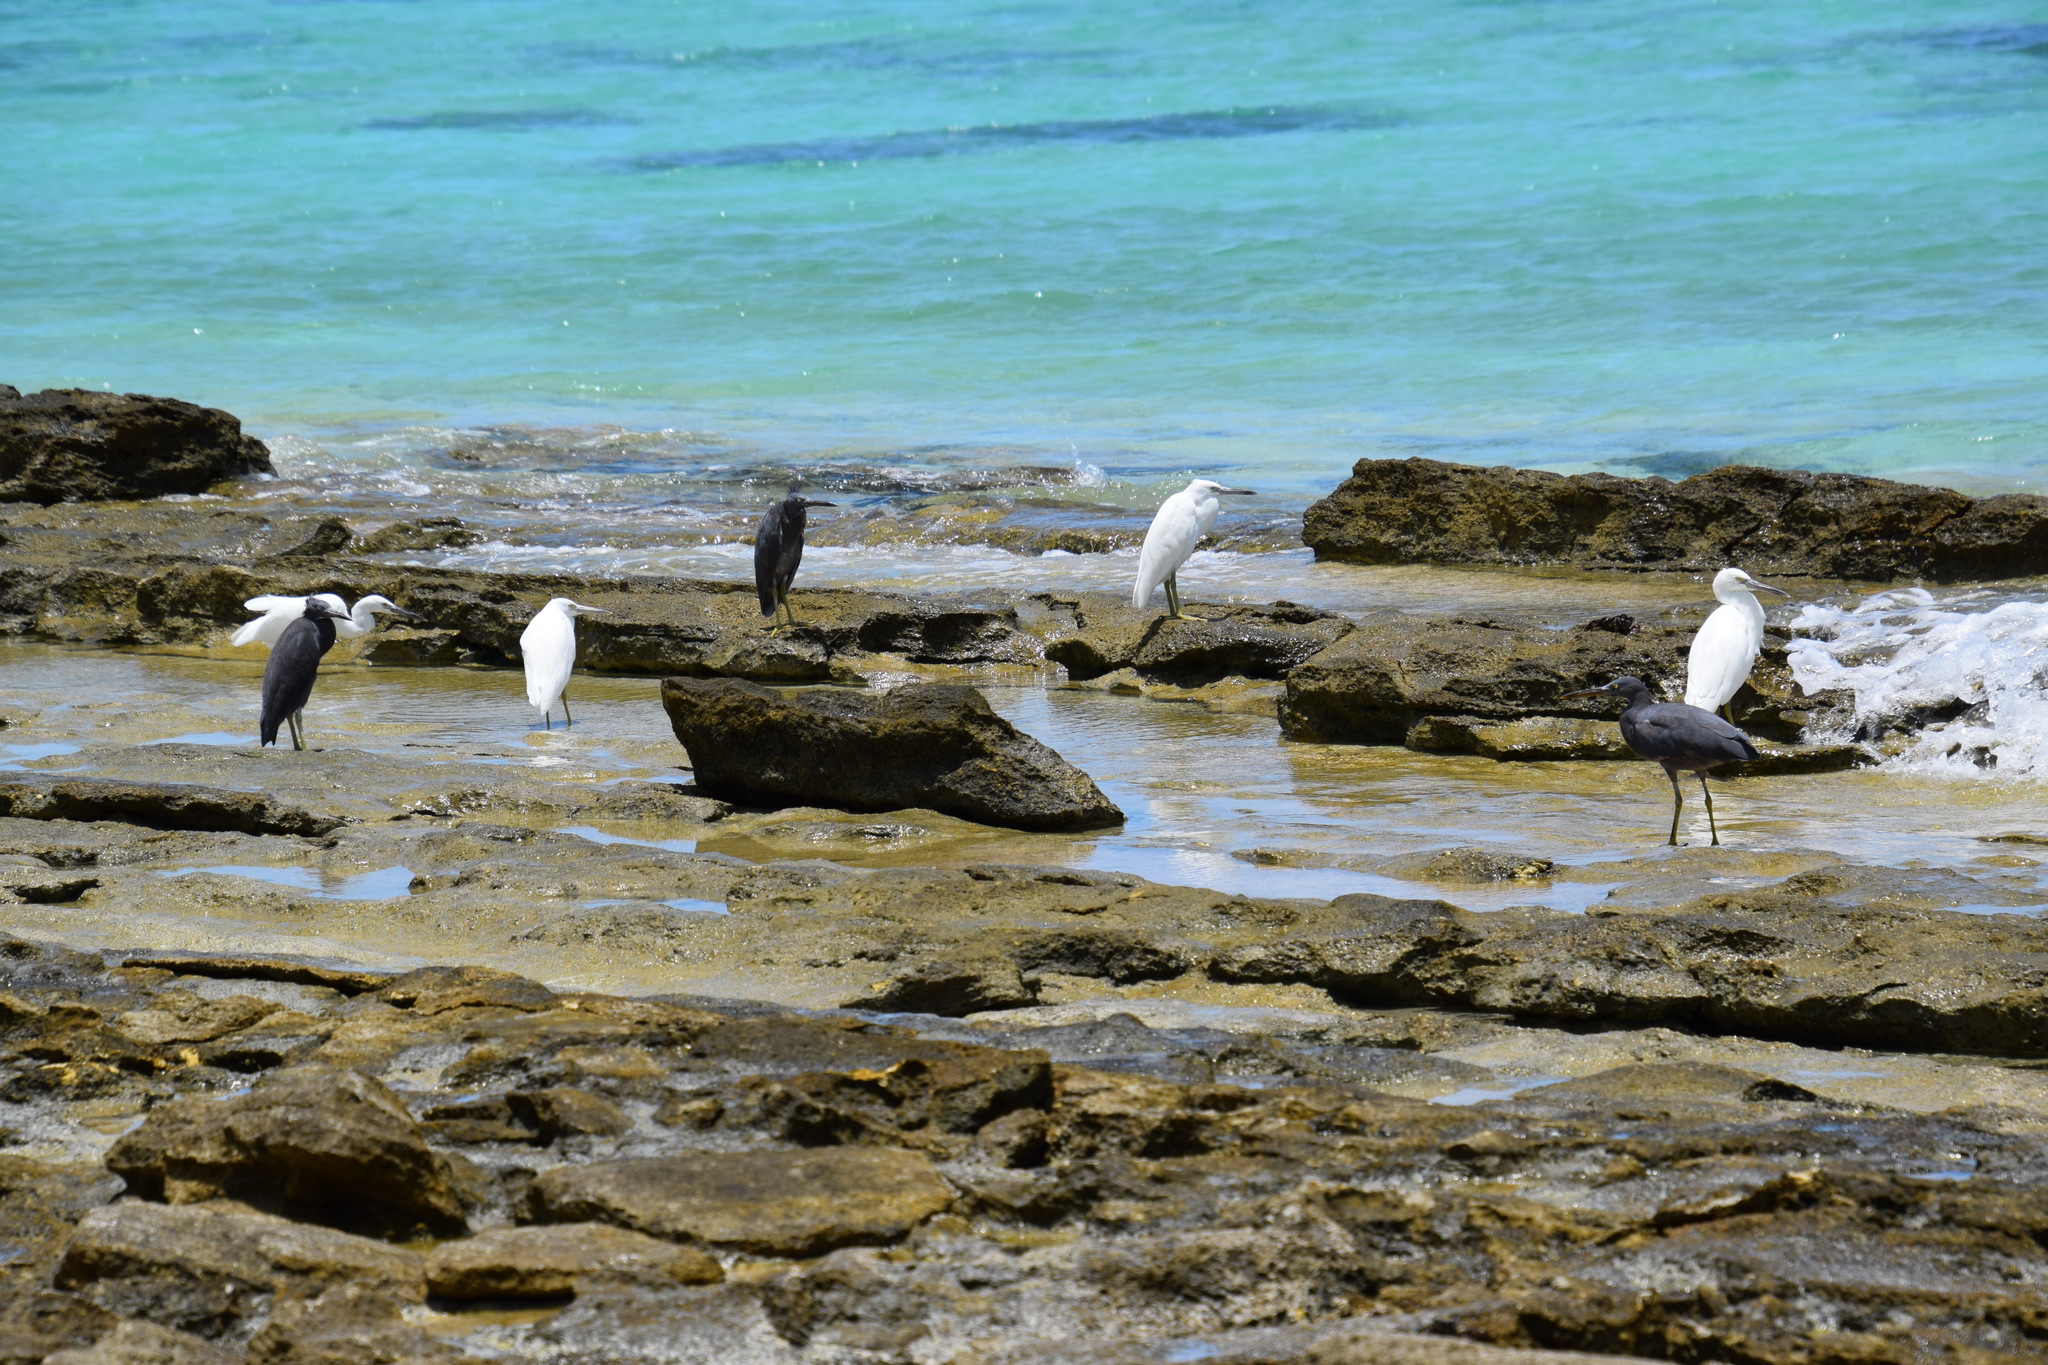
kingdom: Animalia
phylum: Chordata
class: Aves
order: Pelecaniformes
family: Ardeidae
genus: Egretta
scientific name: Egretta sacra
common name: Pacific reef heron
